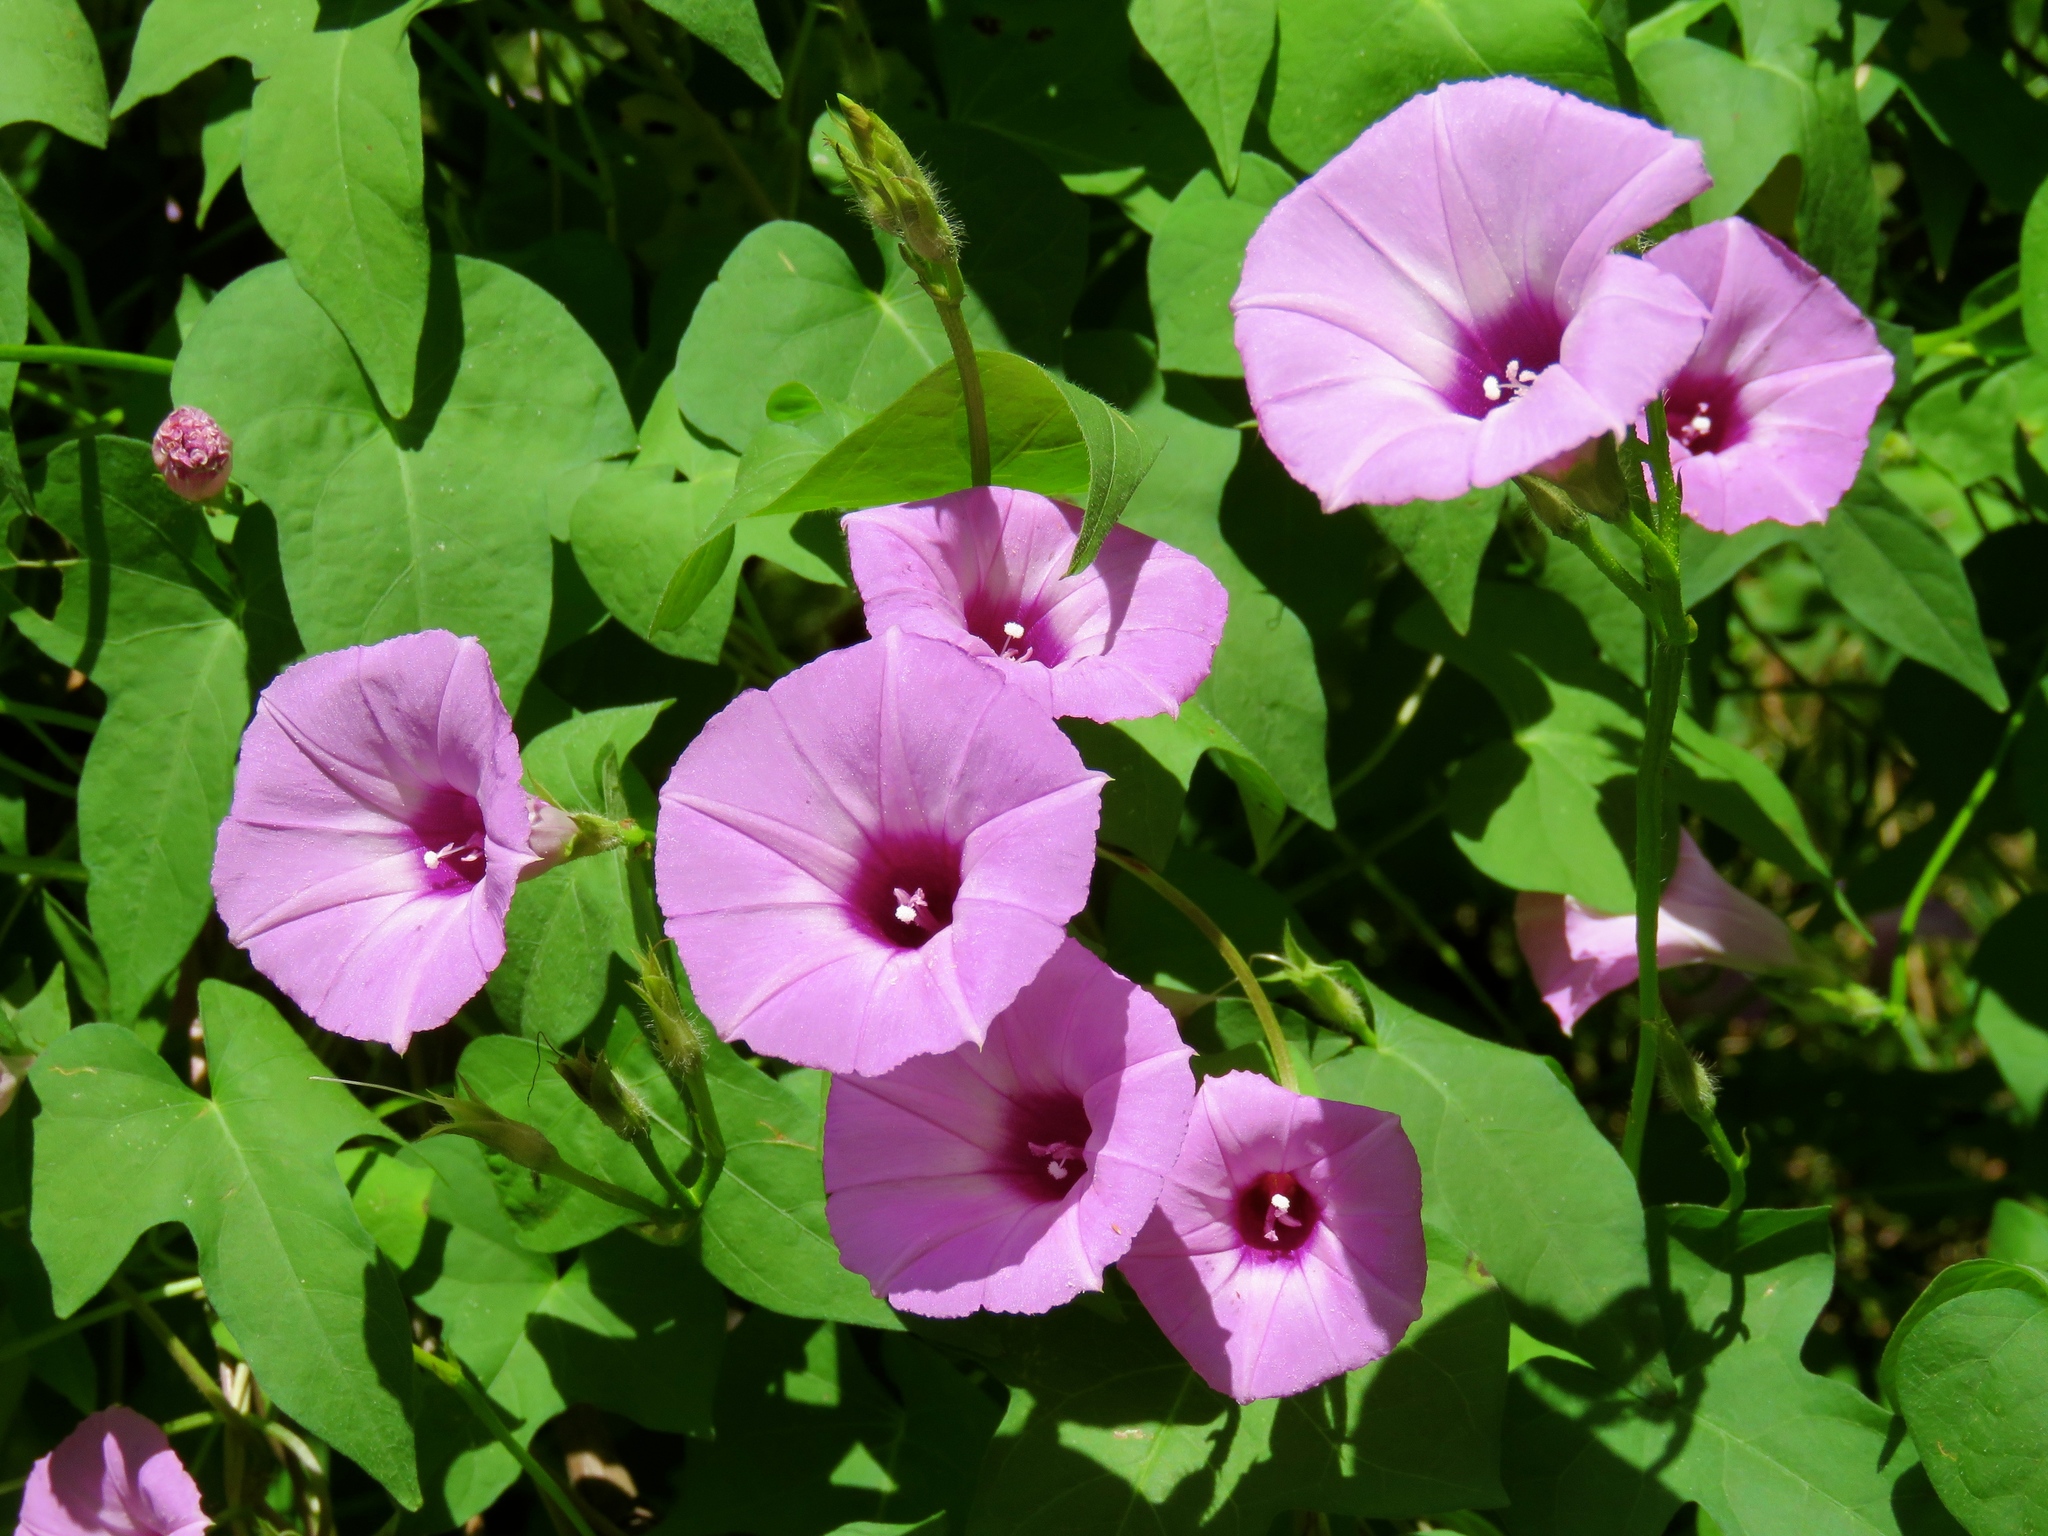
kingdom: Plantae
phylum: Tracheophyta
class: Magnoliopsida
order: Solanales
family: Convolvulaceae
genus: Ipomoea
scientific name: Ipomoea cordatotriloba
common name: Cotton morning glory
